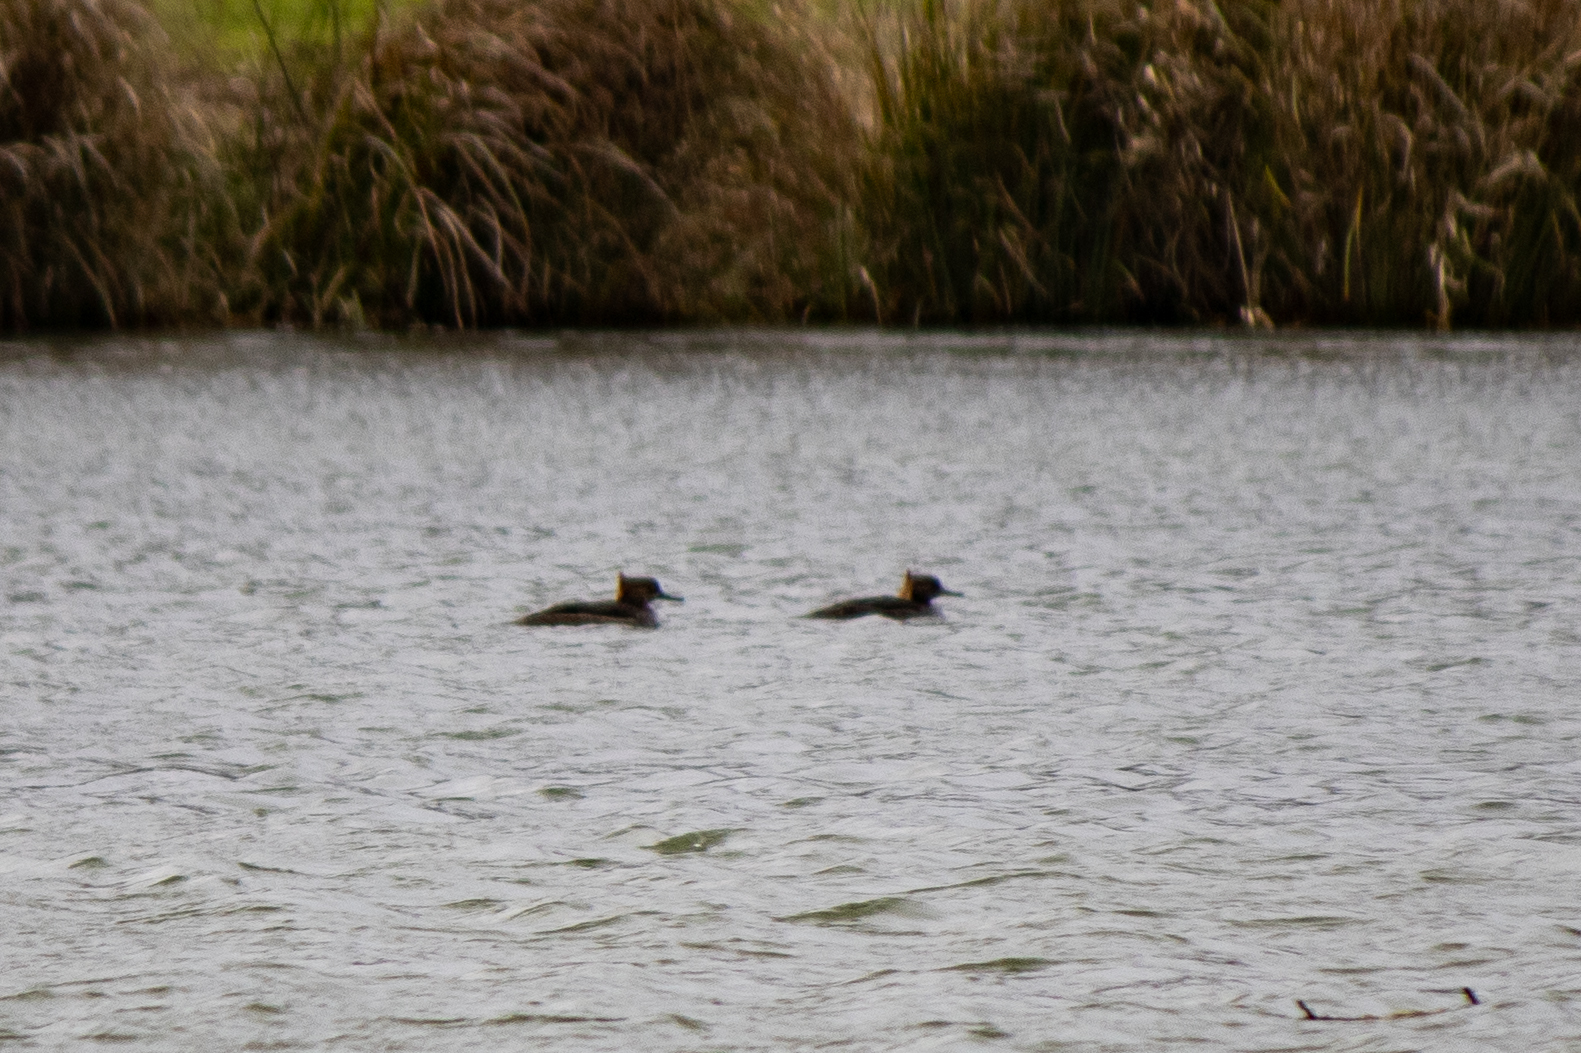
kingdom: Animalia
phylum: Chordata
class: Aves
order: Anseriformes
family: Anatidae
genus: Lophodytes
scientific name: Lophodytes cucullatus
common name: Hooded merganser
